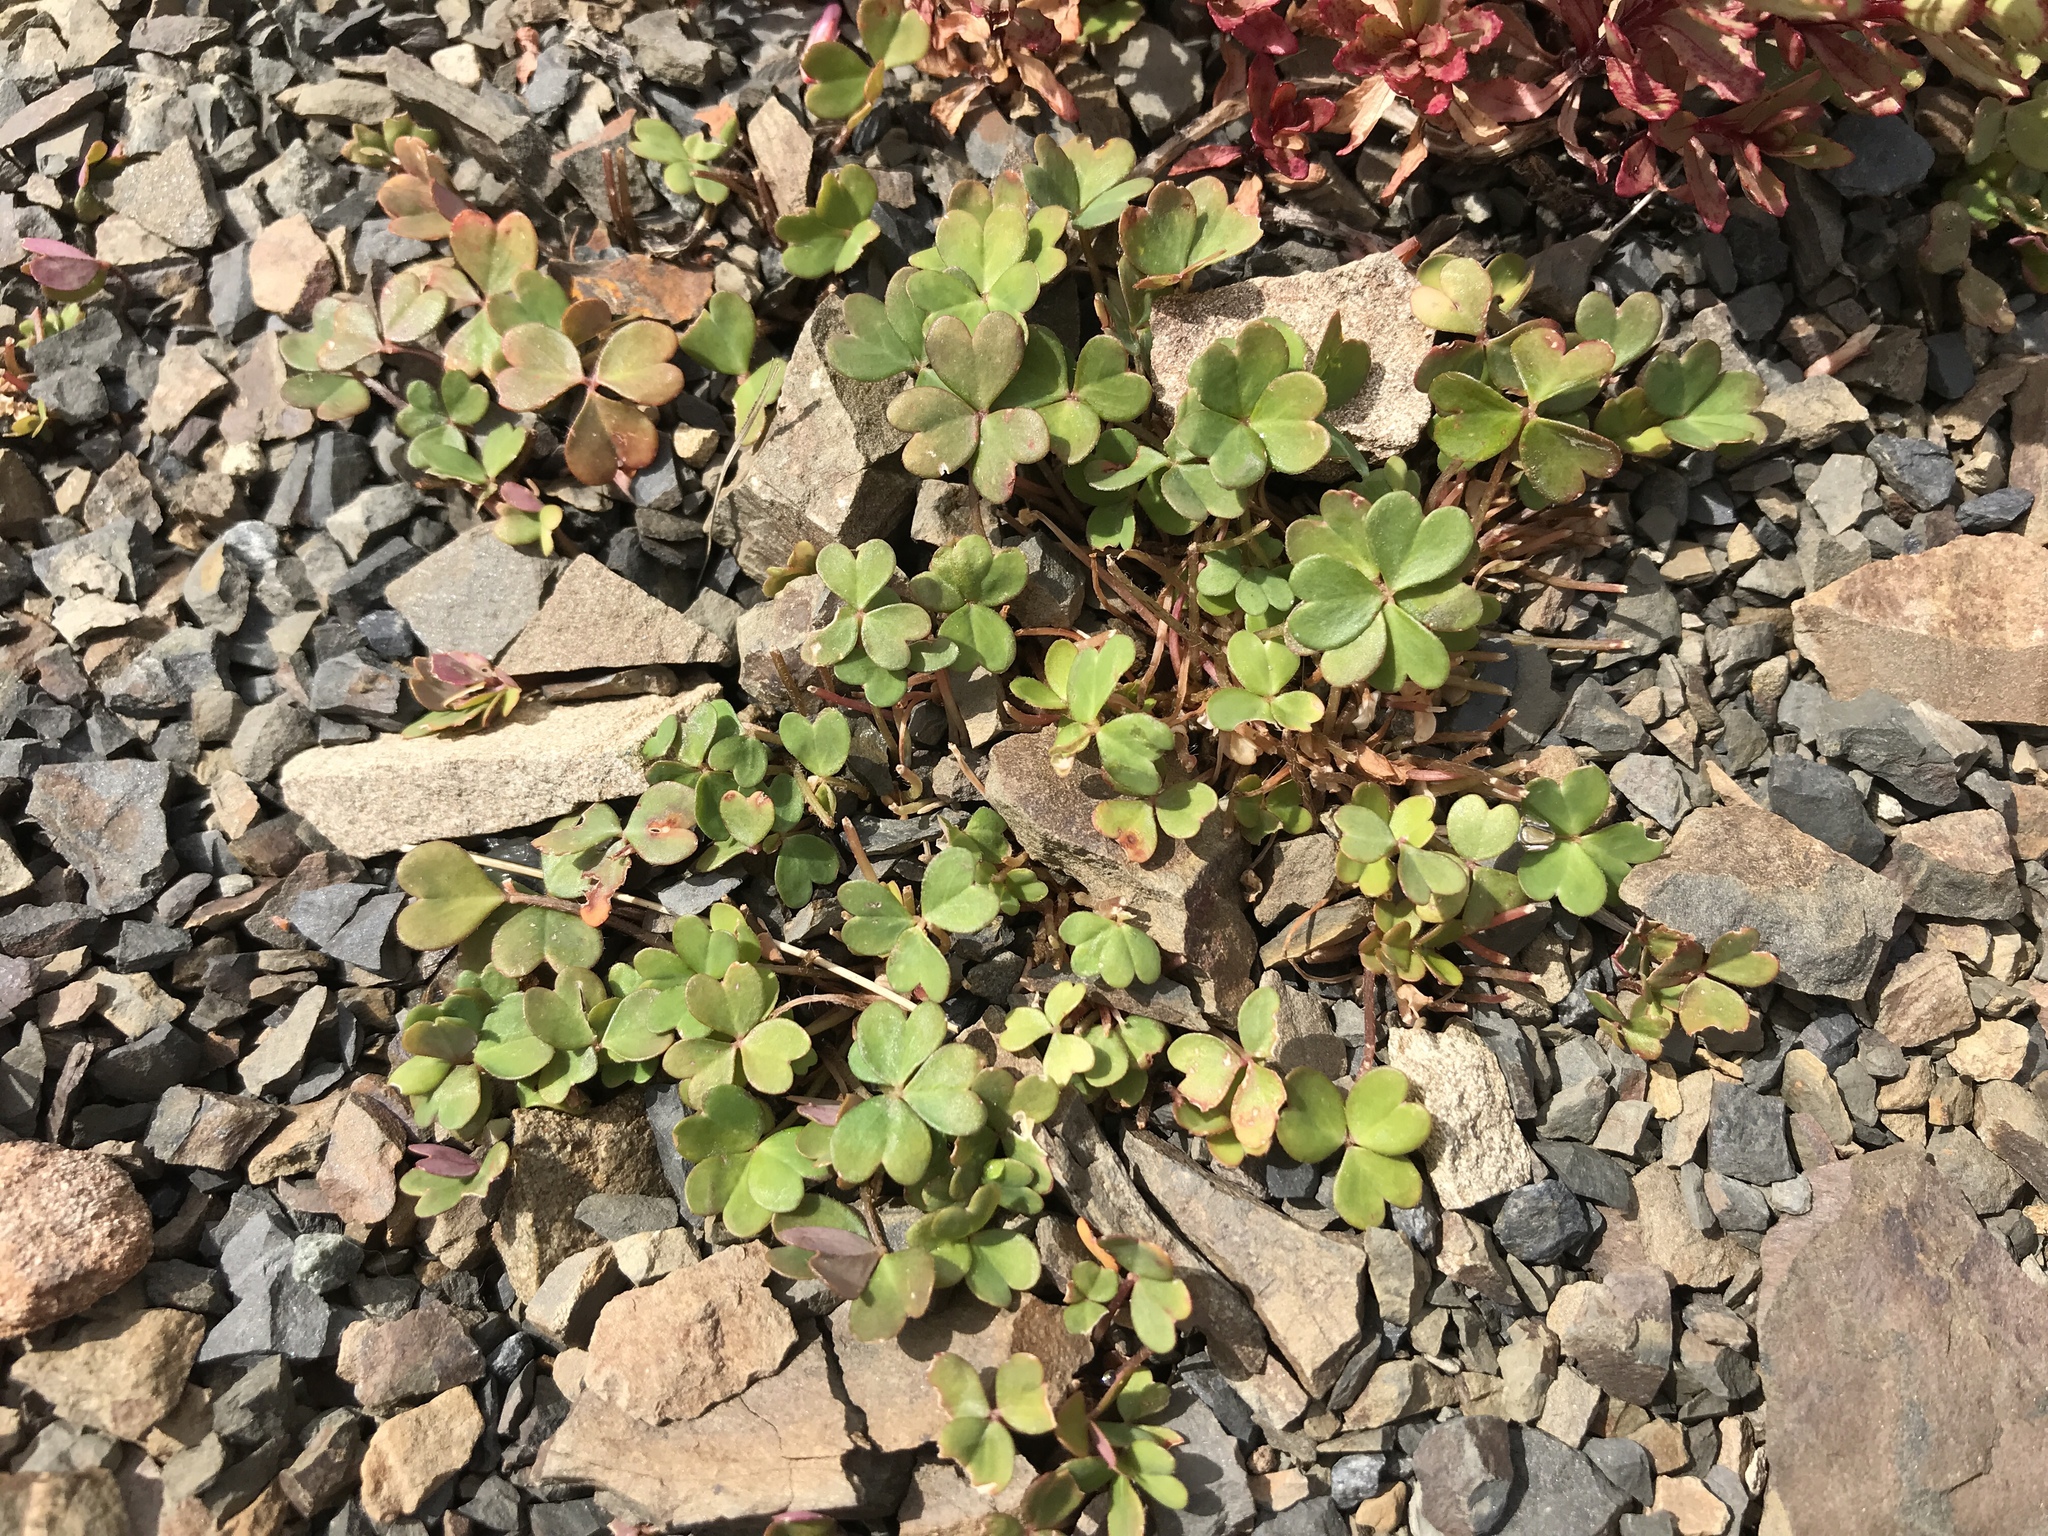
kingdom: Plantae
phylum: Tracheophyta
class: Magnoliopsida
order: Oxalidales
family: Oxalidaceae
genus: Oxalis
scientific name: Oxalis magellanica
